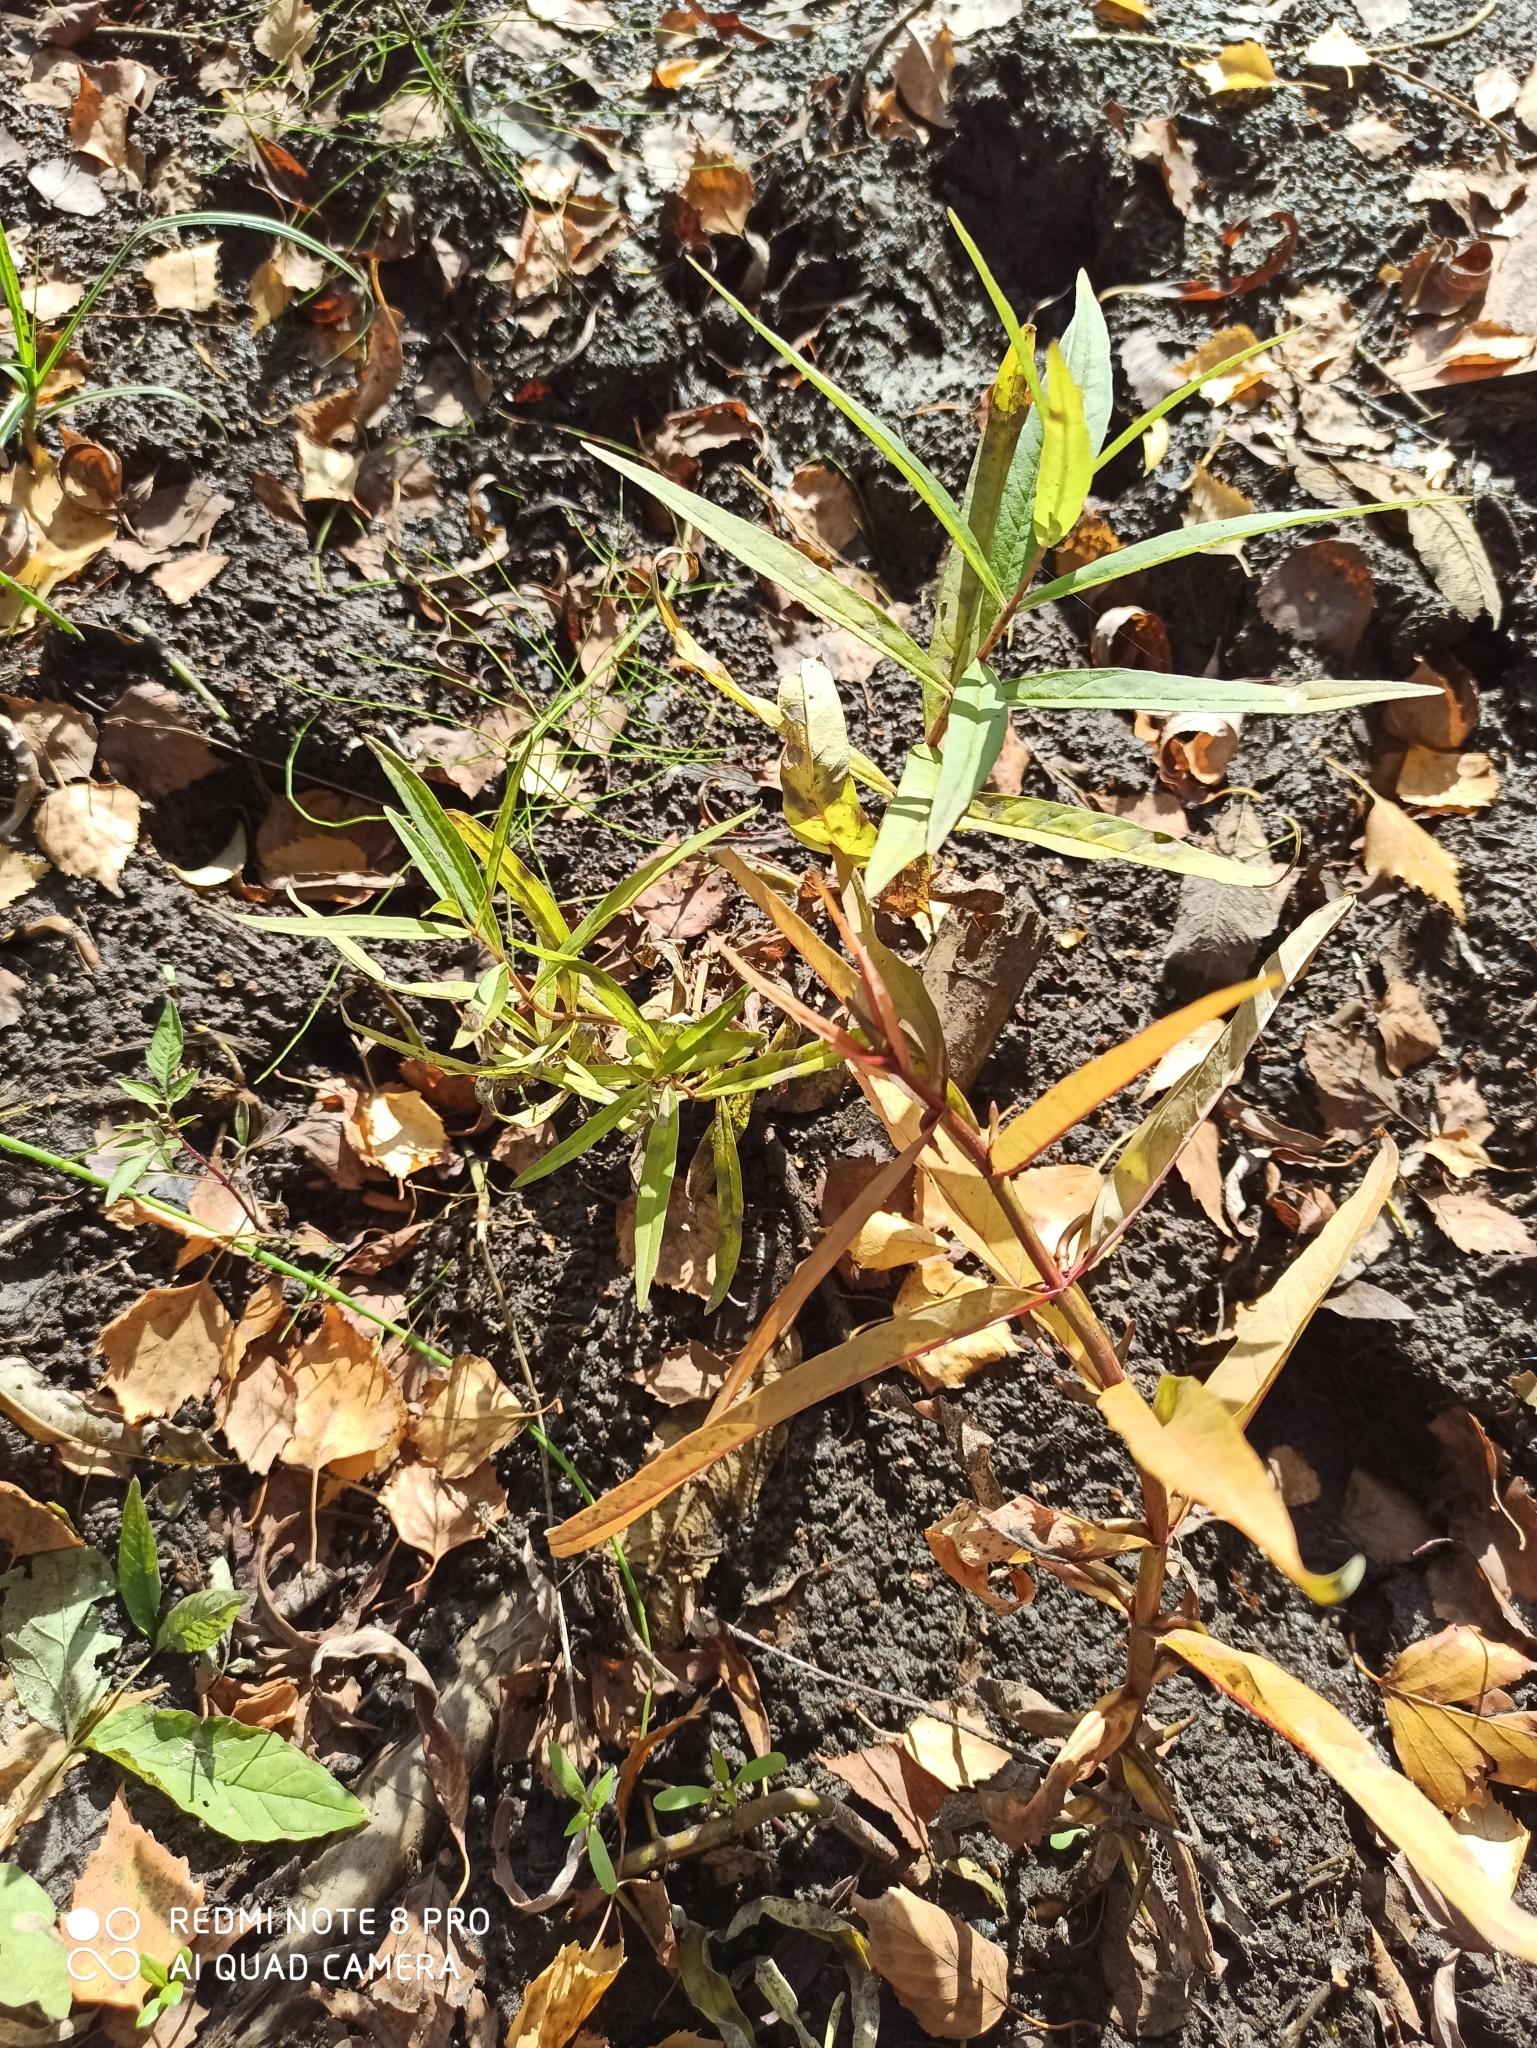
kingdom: Plantae
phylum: Tracheophyta
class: Magnoliopsida
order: Ericales
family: Primulaceae
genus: Lysimachia
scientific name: Lysimachia thyrsiflora
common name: Tufted loosestrife
